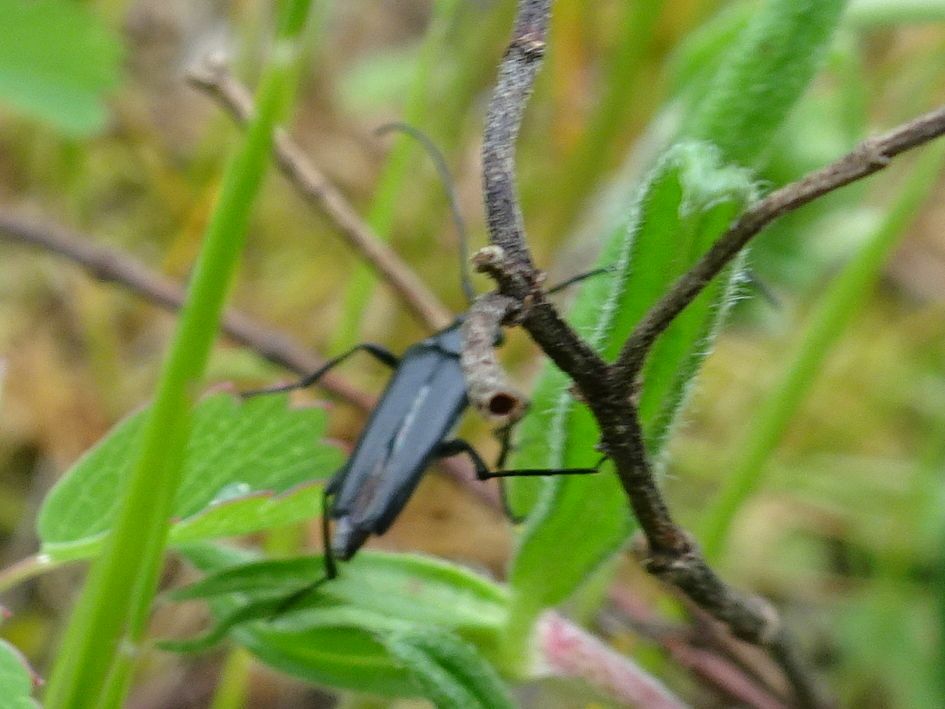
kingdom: Animalia
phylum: Arthropoda
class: Insecta
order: Coleoptera
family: Cerambycidae
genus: Stenurella
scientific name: Stenurella nigra
